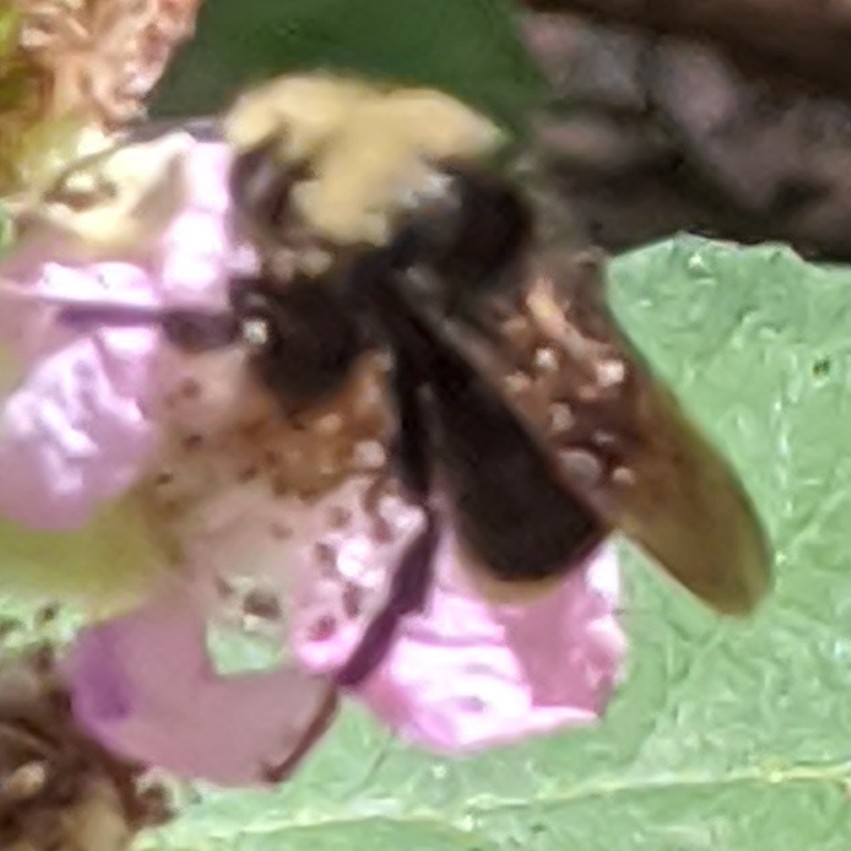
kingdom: Animalia
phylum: Arthropoda
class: Insecta
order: Hymenoptera
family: Apidae
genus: Bombus
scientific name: Bombus vosnesenskii
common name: Vosnesensky bumble bee
